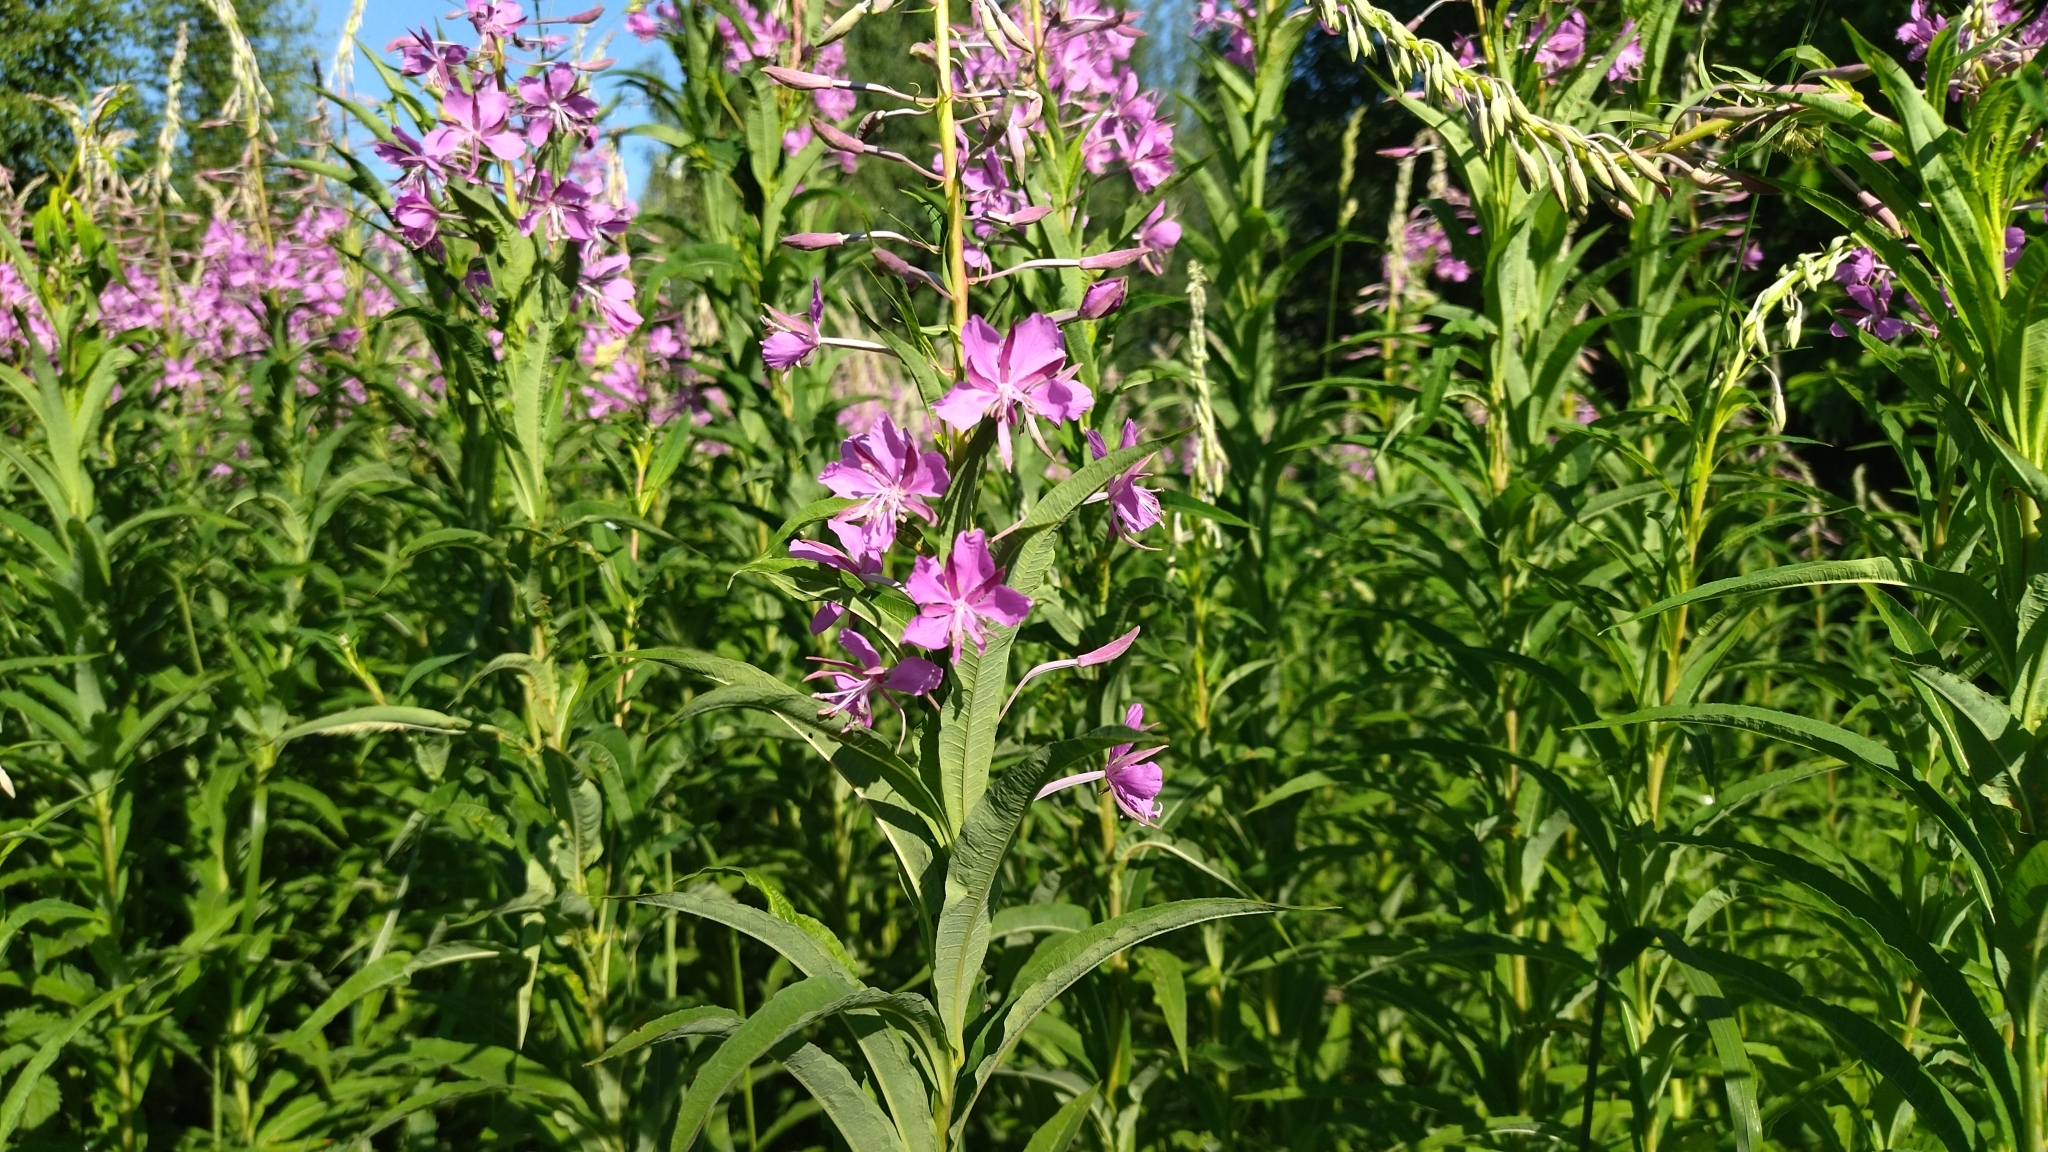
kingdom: Plantae
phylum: Tracheophyta
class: Magnoliopsida
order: Myrtales
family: Onagraceae
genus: Chamaenerion
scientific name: Chamaenerion angustifolium
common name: Fireweed
